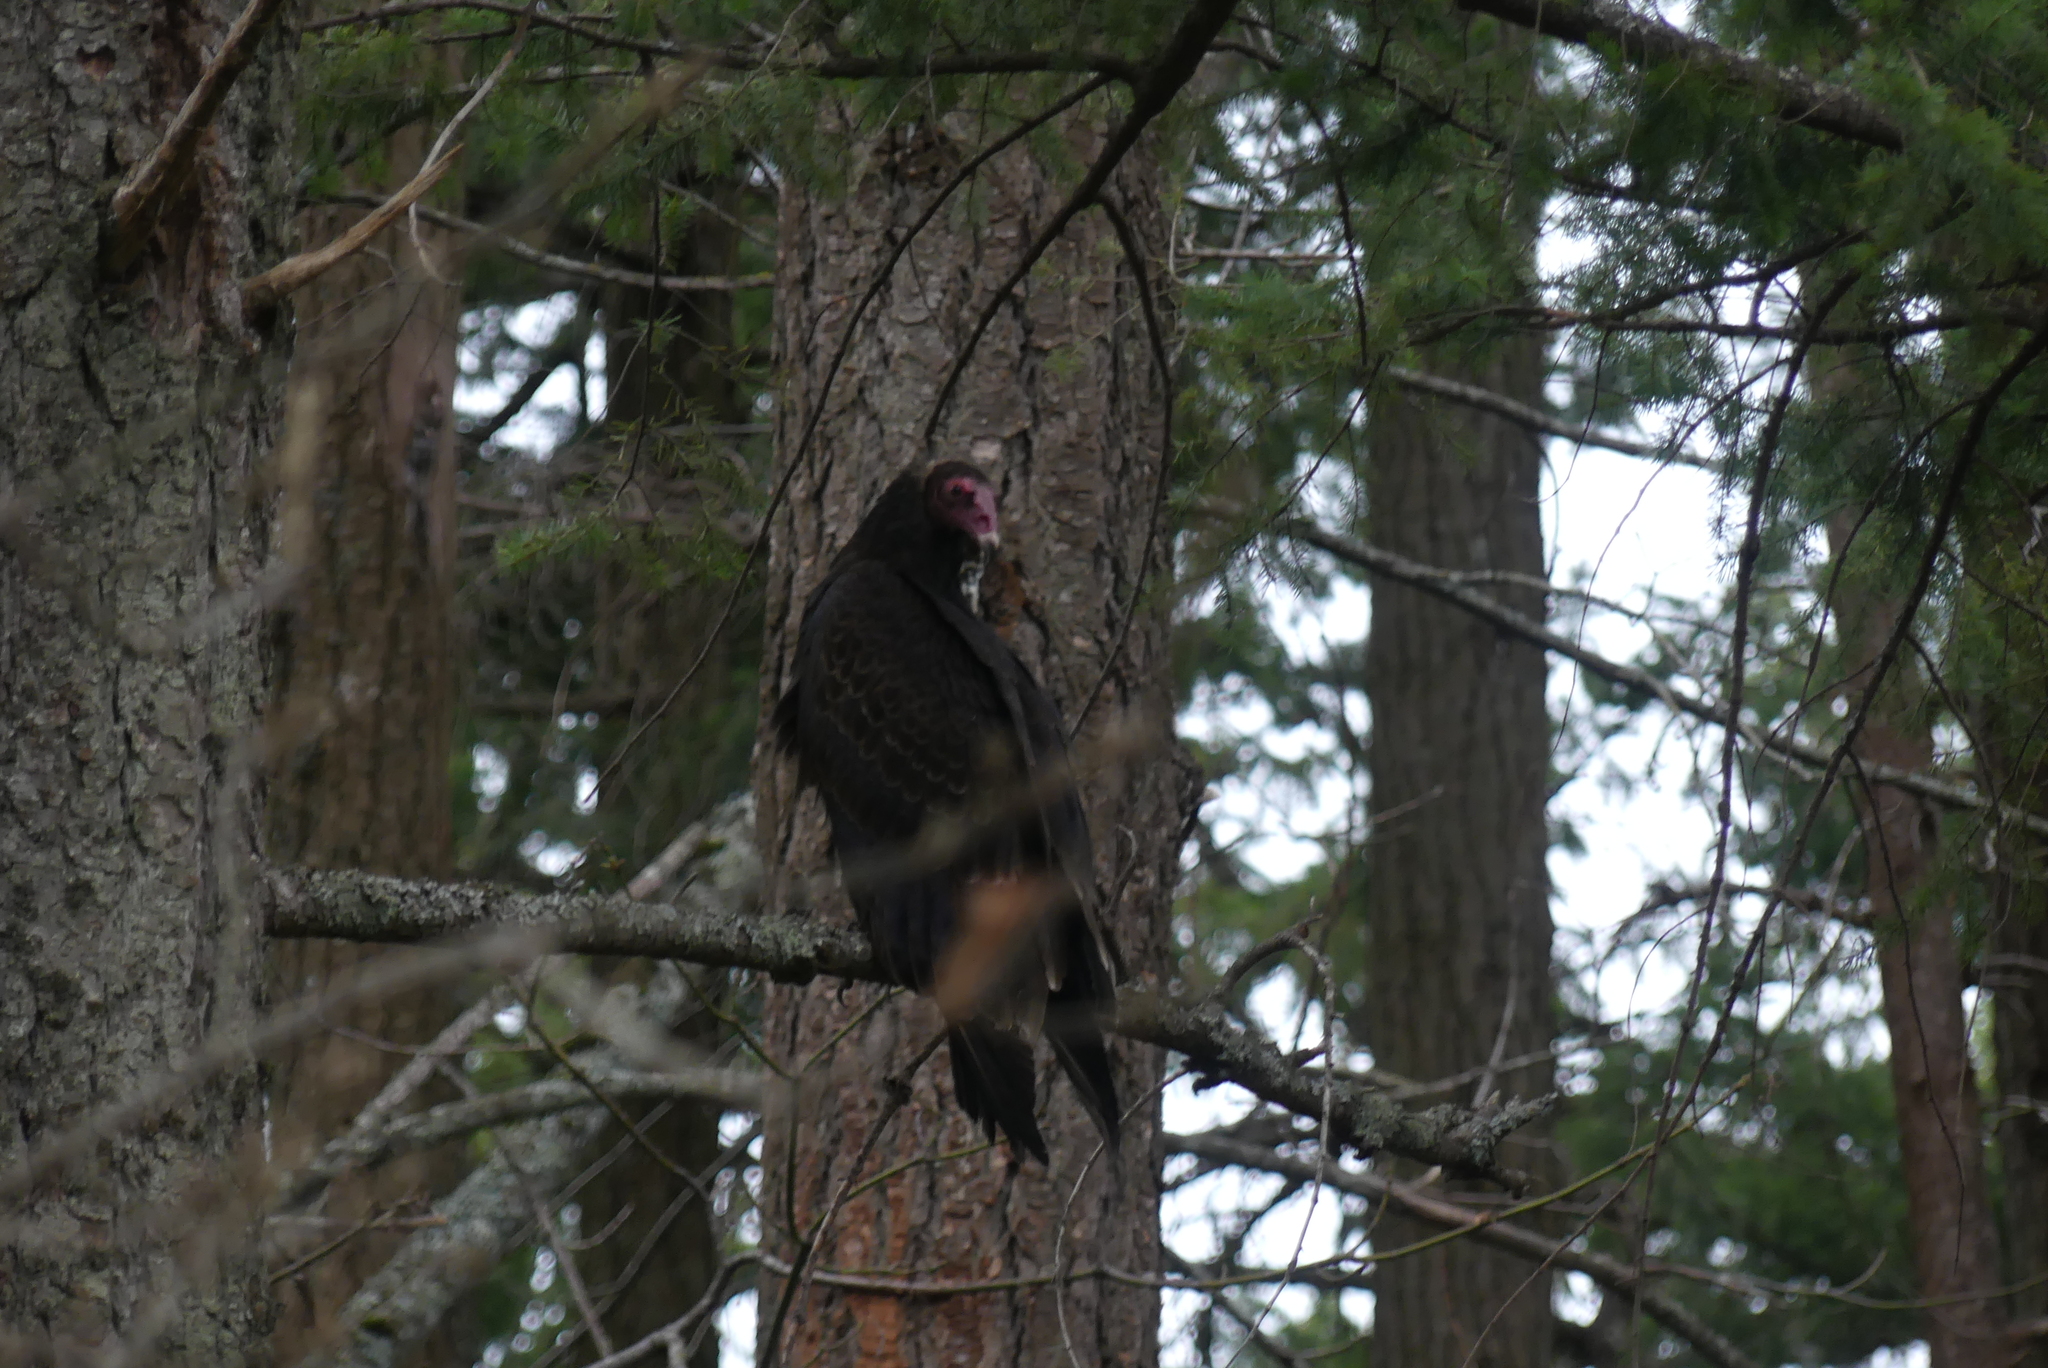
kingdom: Animalia
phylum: Chordata
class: Aves
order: Accipitriformes
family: Cathartidae
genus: Cathartes
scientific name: Cathartes aura
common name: Turkey vulture
